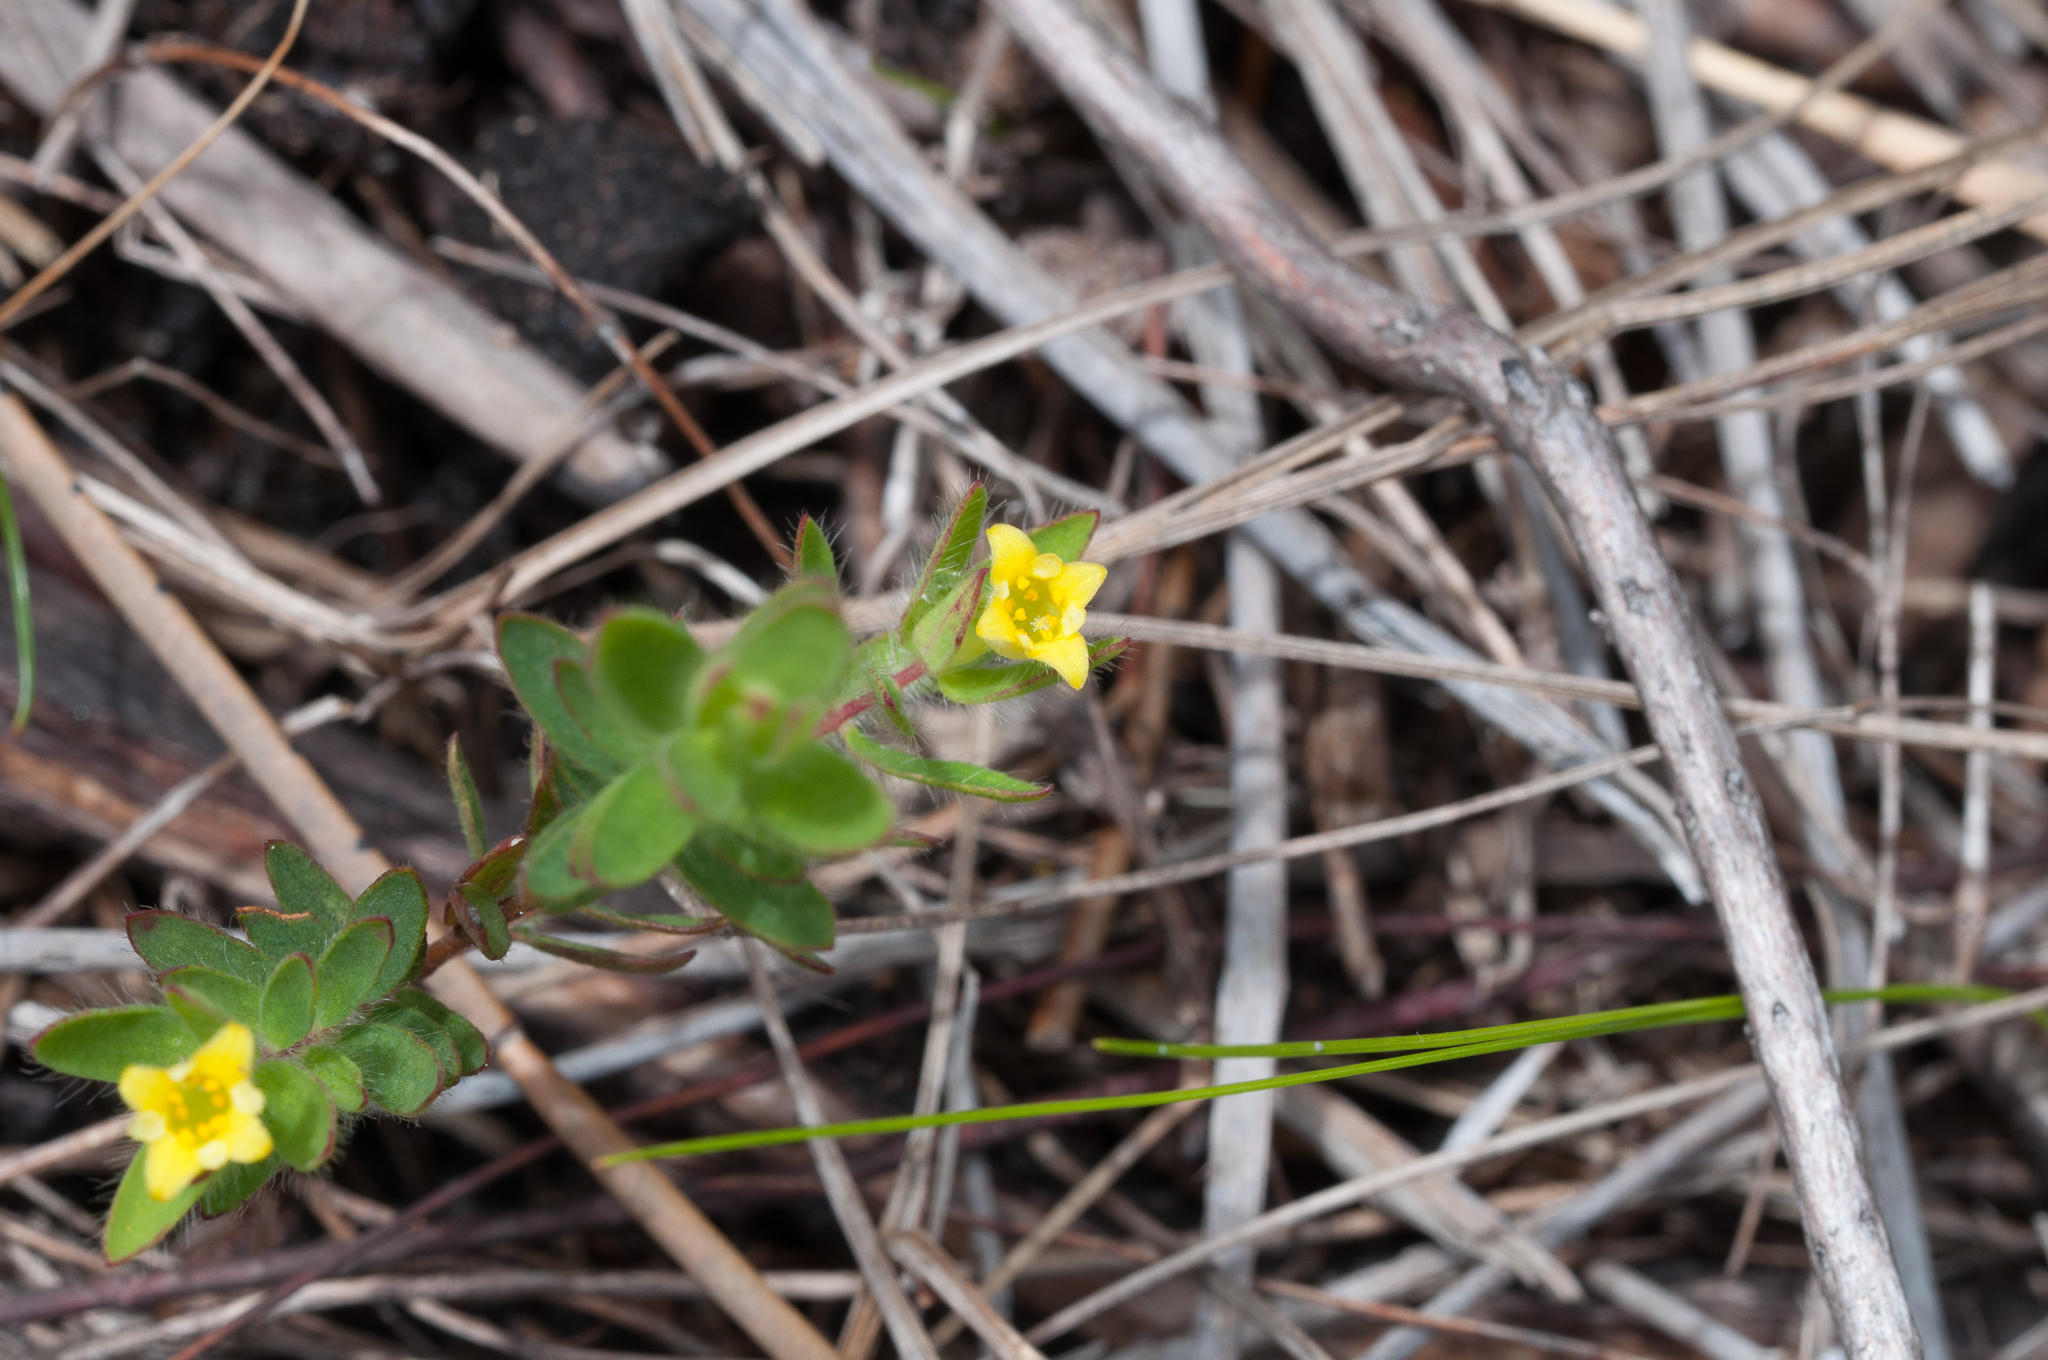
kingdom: Plantae
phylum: Tracheophyta
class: Magnoliopsida
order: Malvales
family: Thymelaeaceae
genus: Gnidia
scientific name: Gnidia humilis
